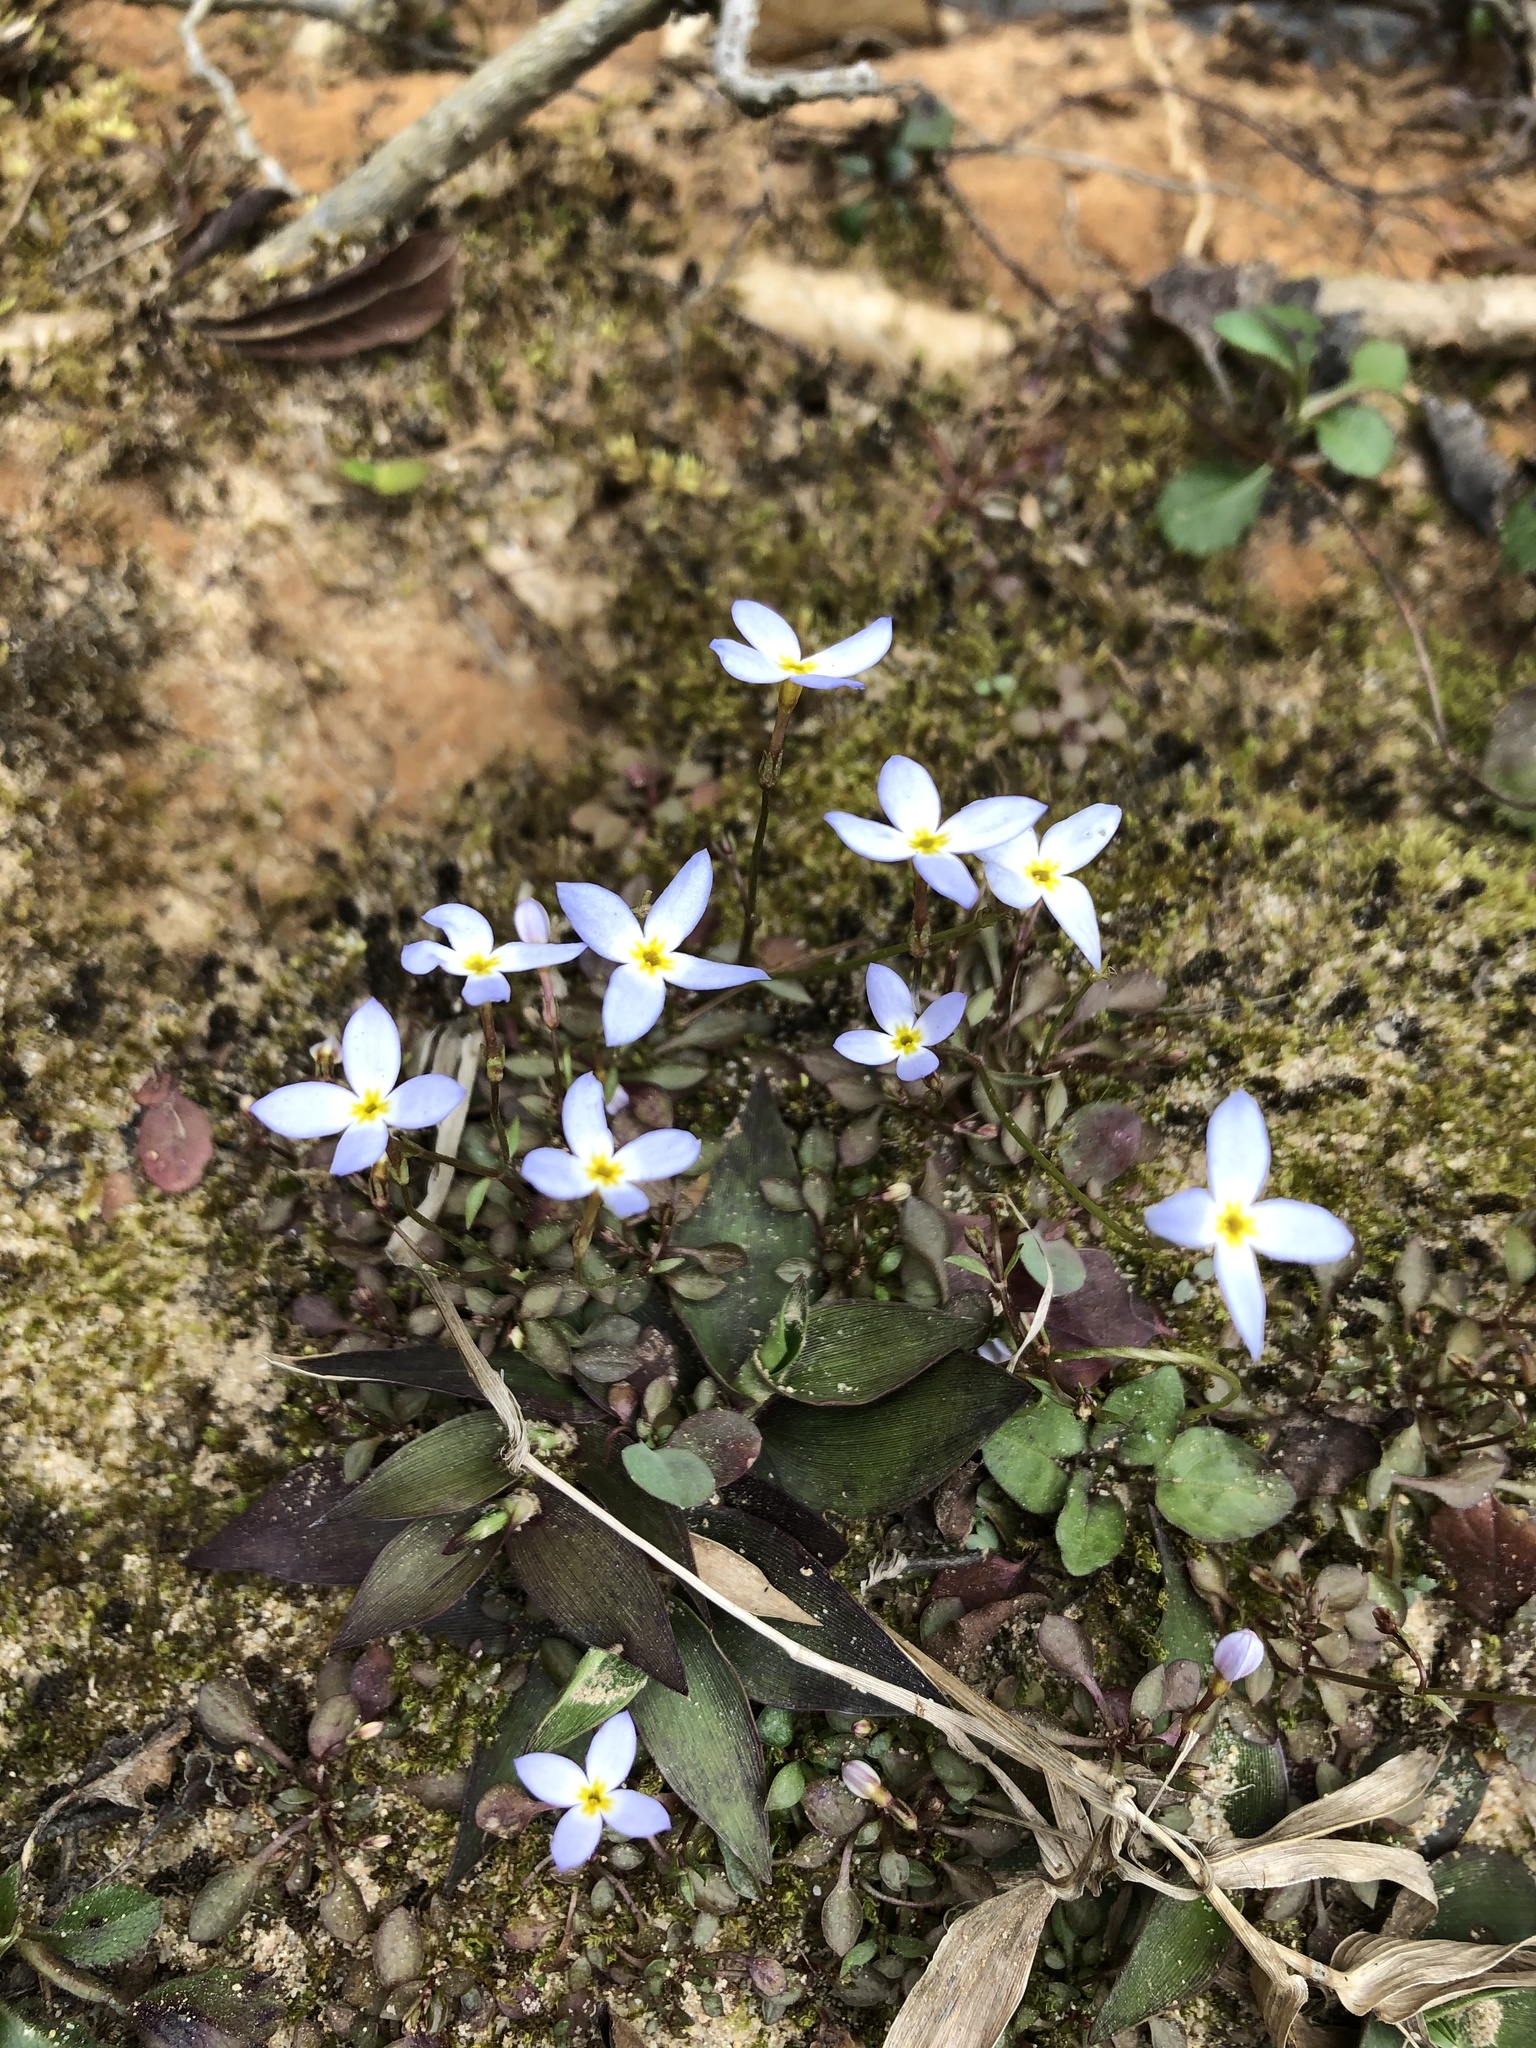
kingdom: Plantae
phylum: Tracheophyta
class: Magnoliopsida
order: Gentianales
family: Rubiaceae
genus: Houstonia
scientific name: Houstonia caerulea
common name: Bluets
